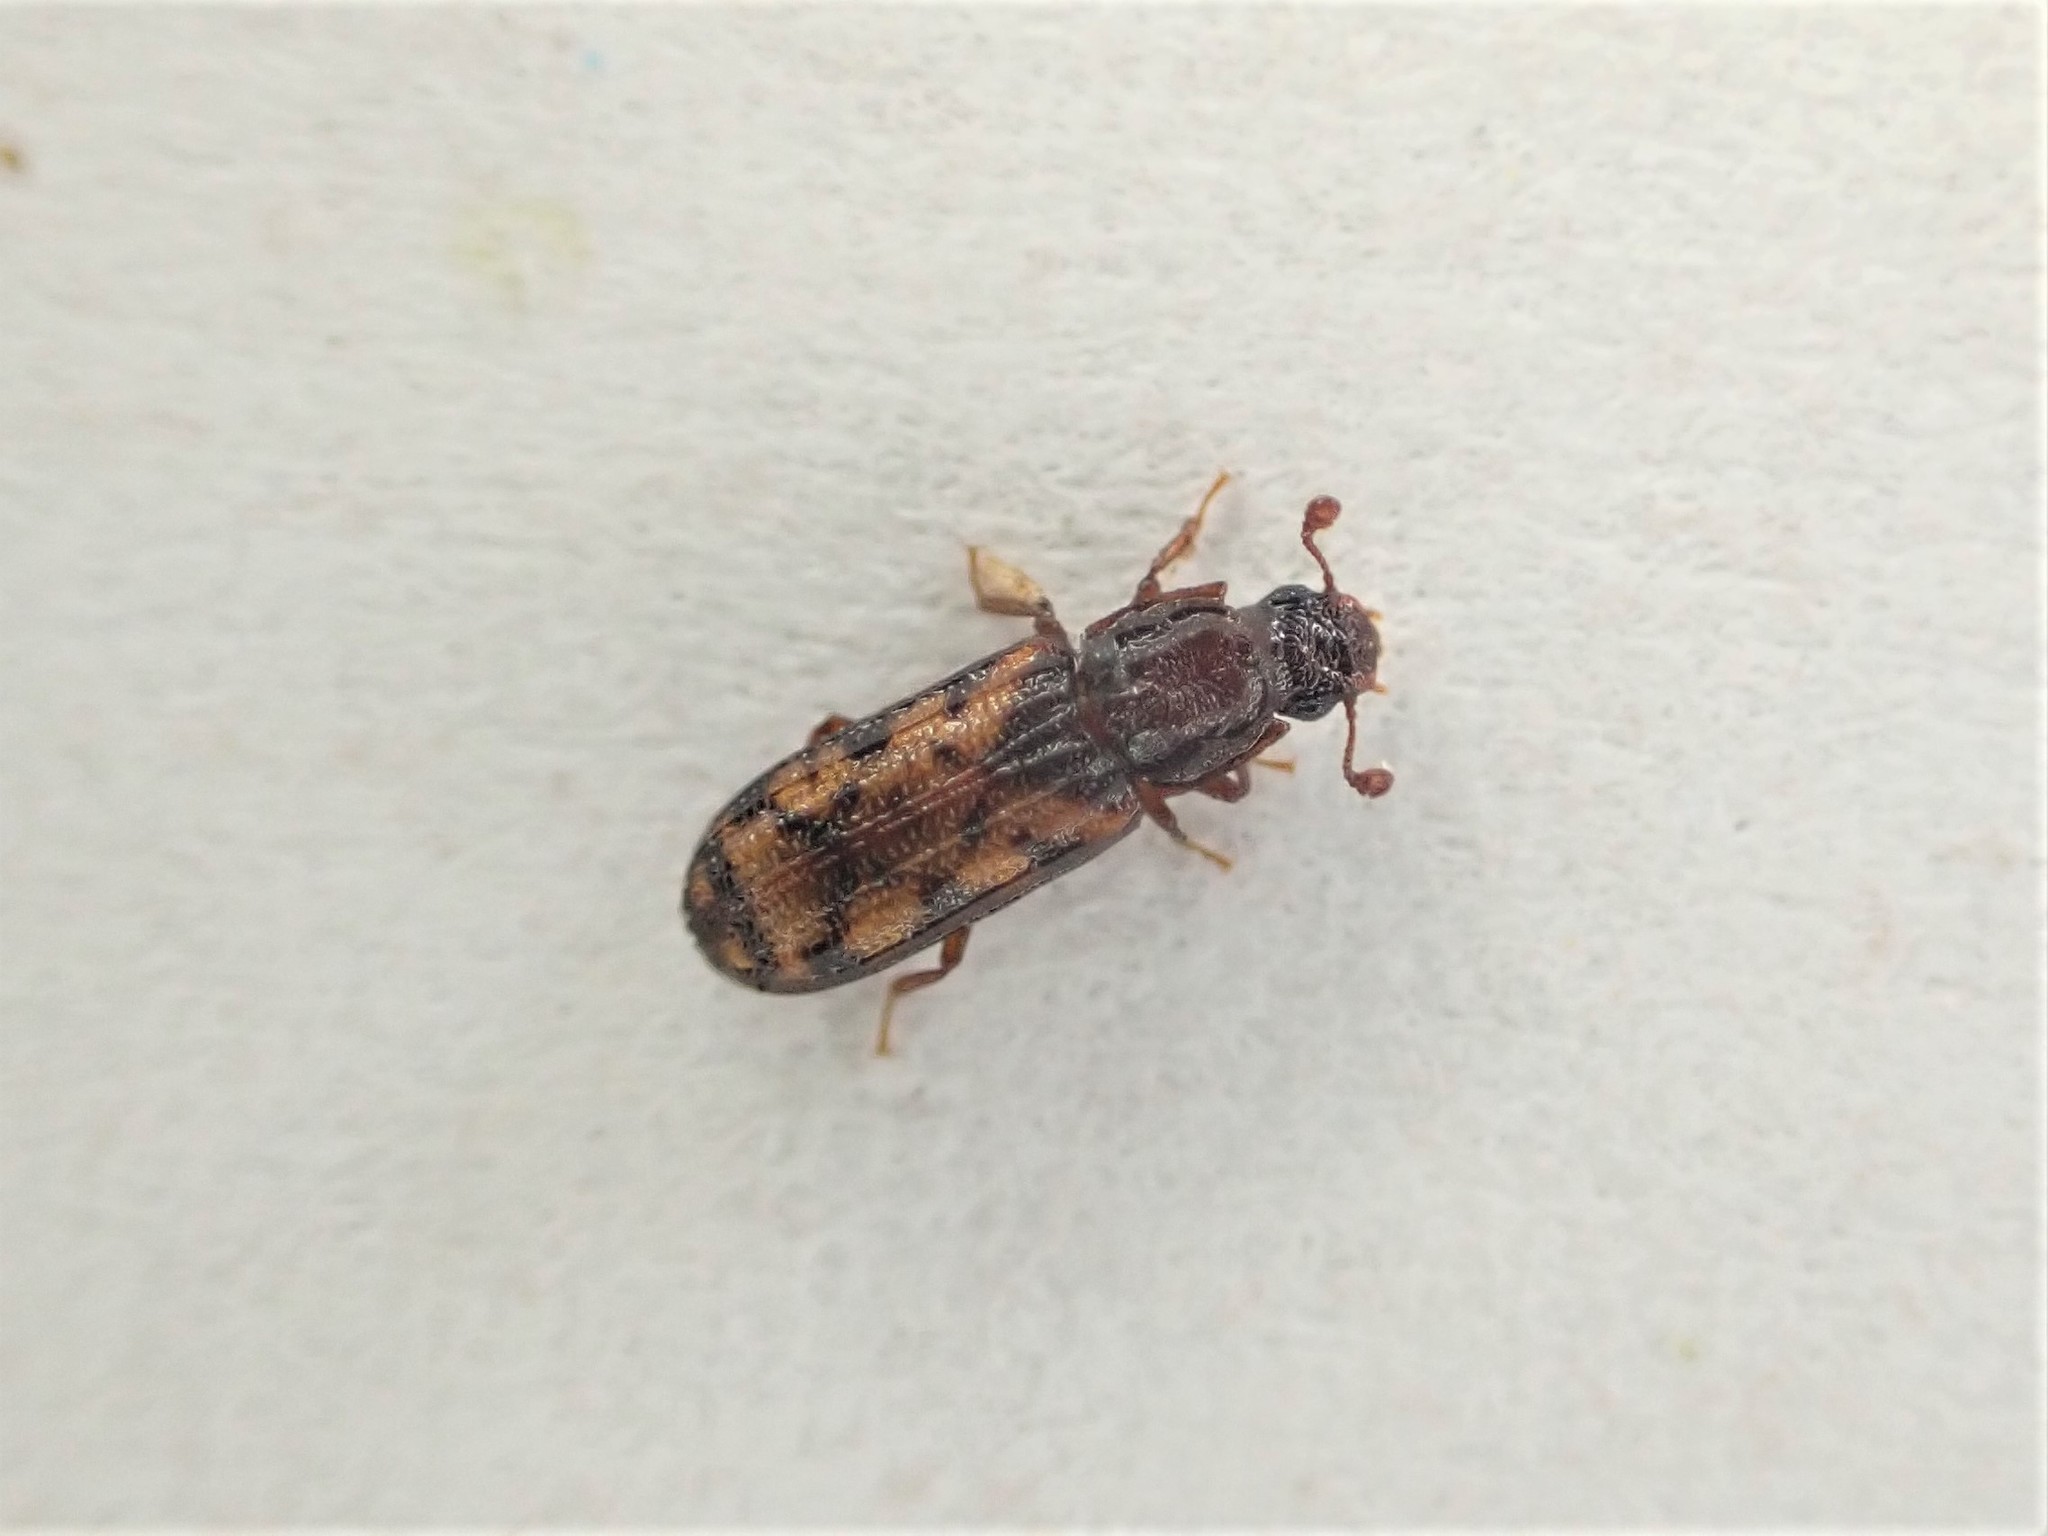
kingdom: Animalia
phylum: Arthropoda
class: Insecta
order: Coleoptera
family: Zopheridae
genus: Bitoma
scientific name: Bitoma insularis
